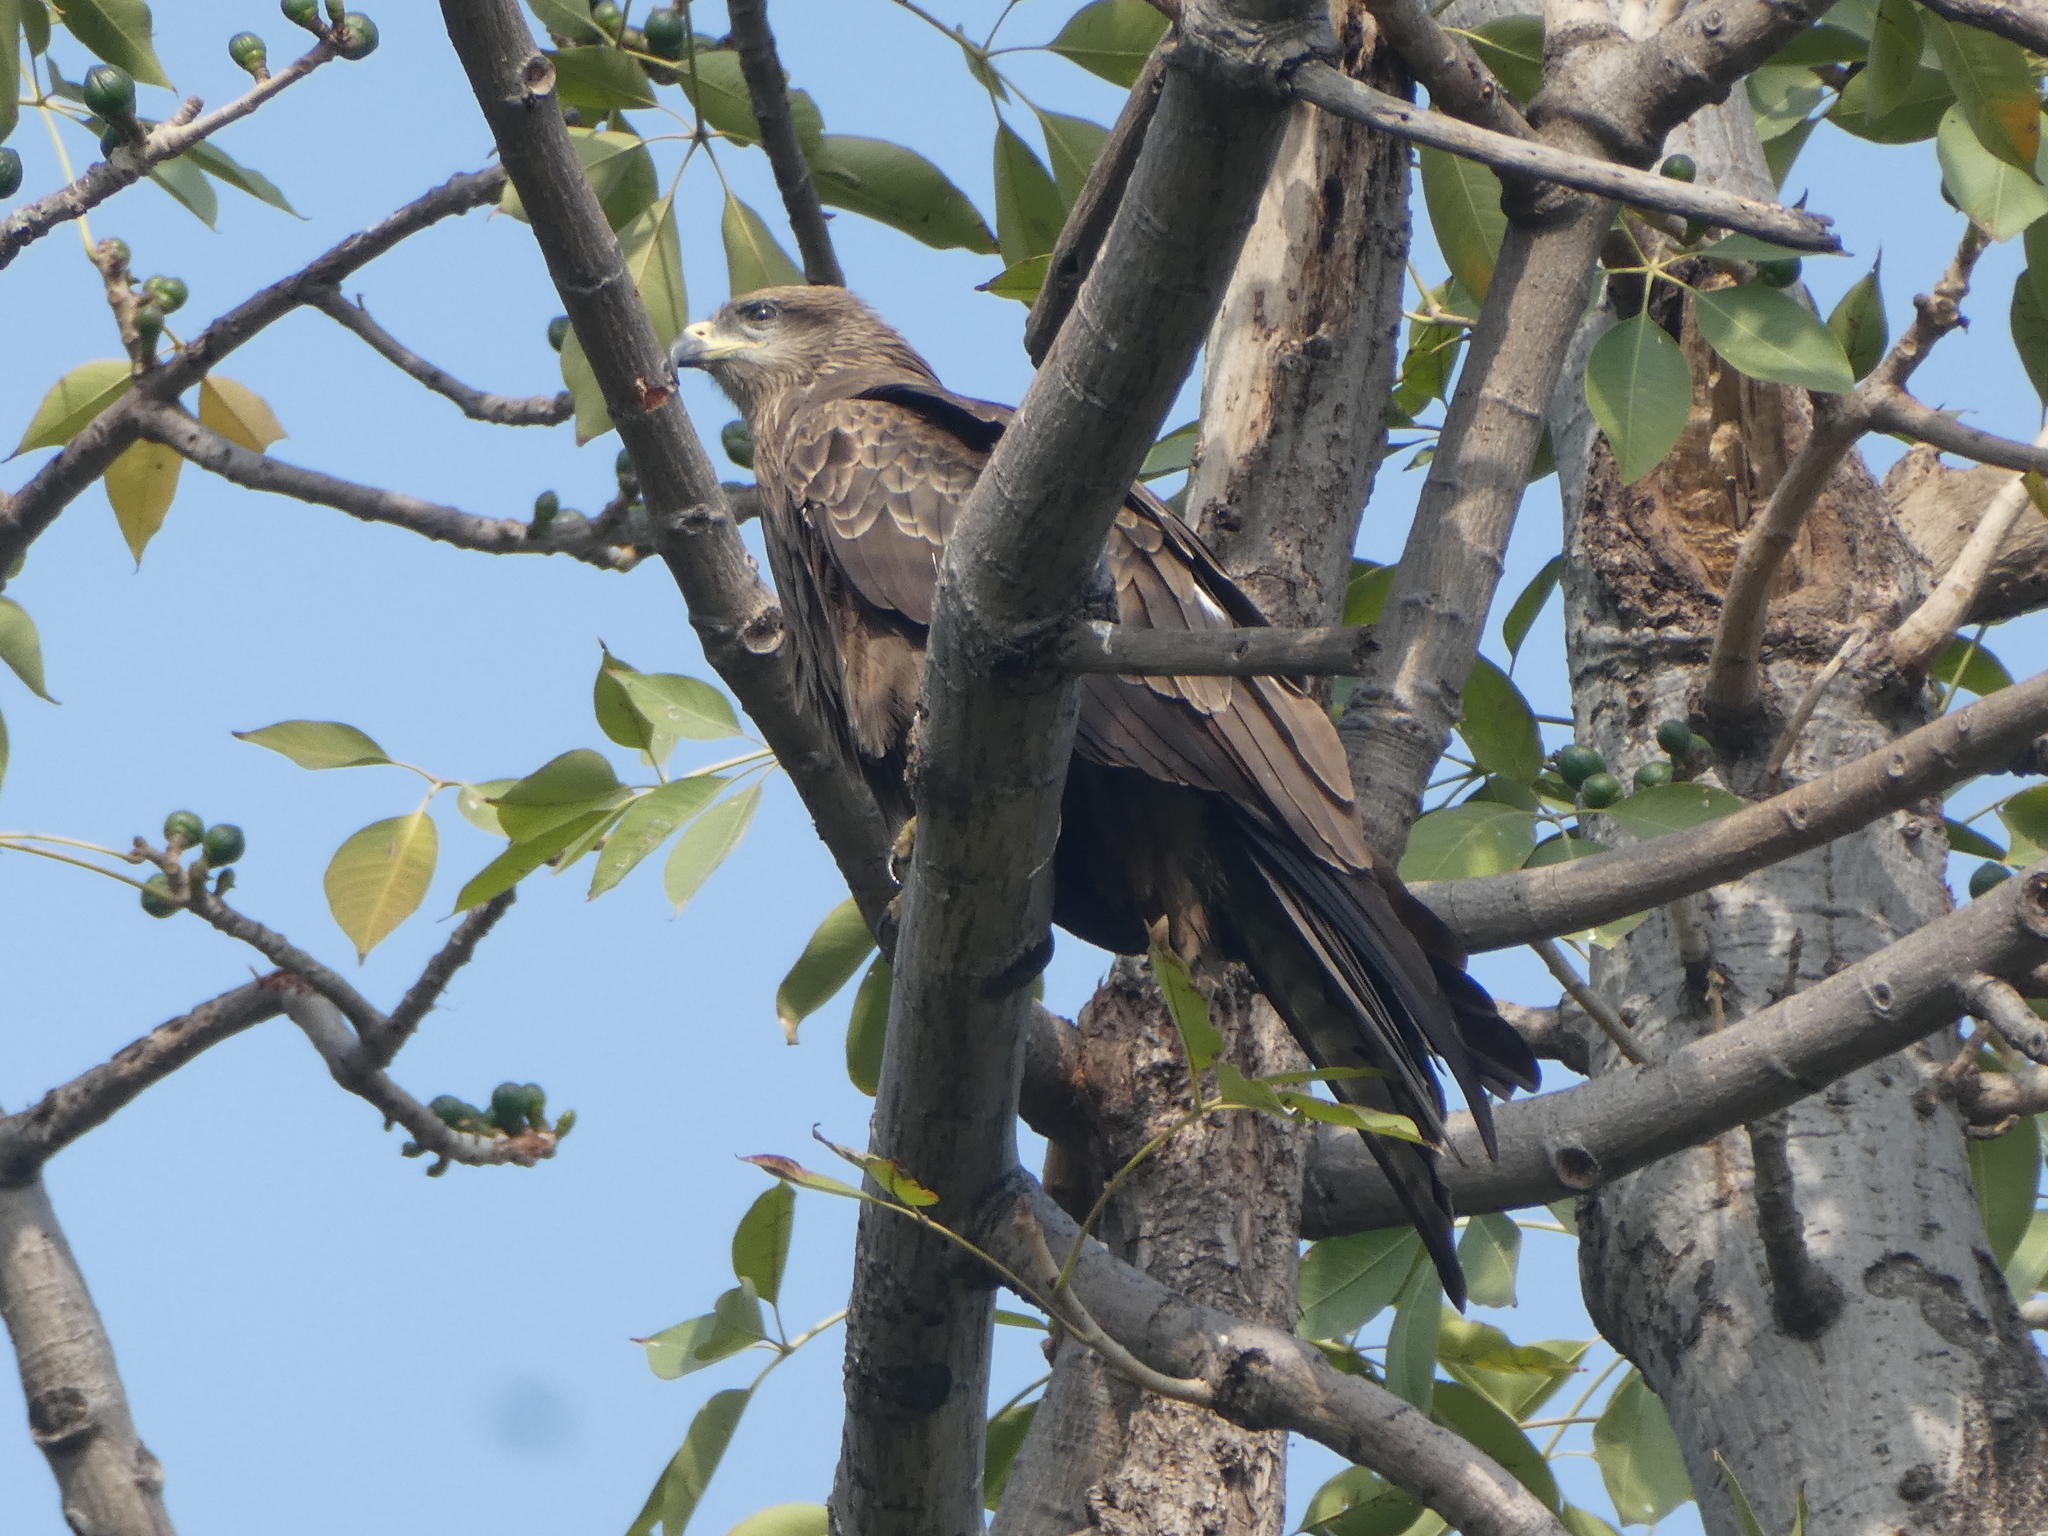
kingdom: Animalia
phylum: Chordata
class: Aves
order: Accipitriformes
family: Accipitridae
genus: Milvus
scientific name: Milvus migrans
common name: Black kite
